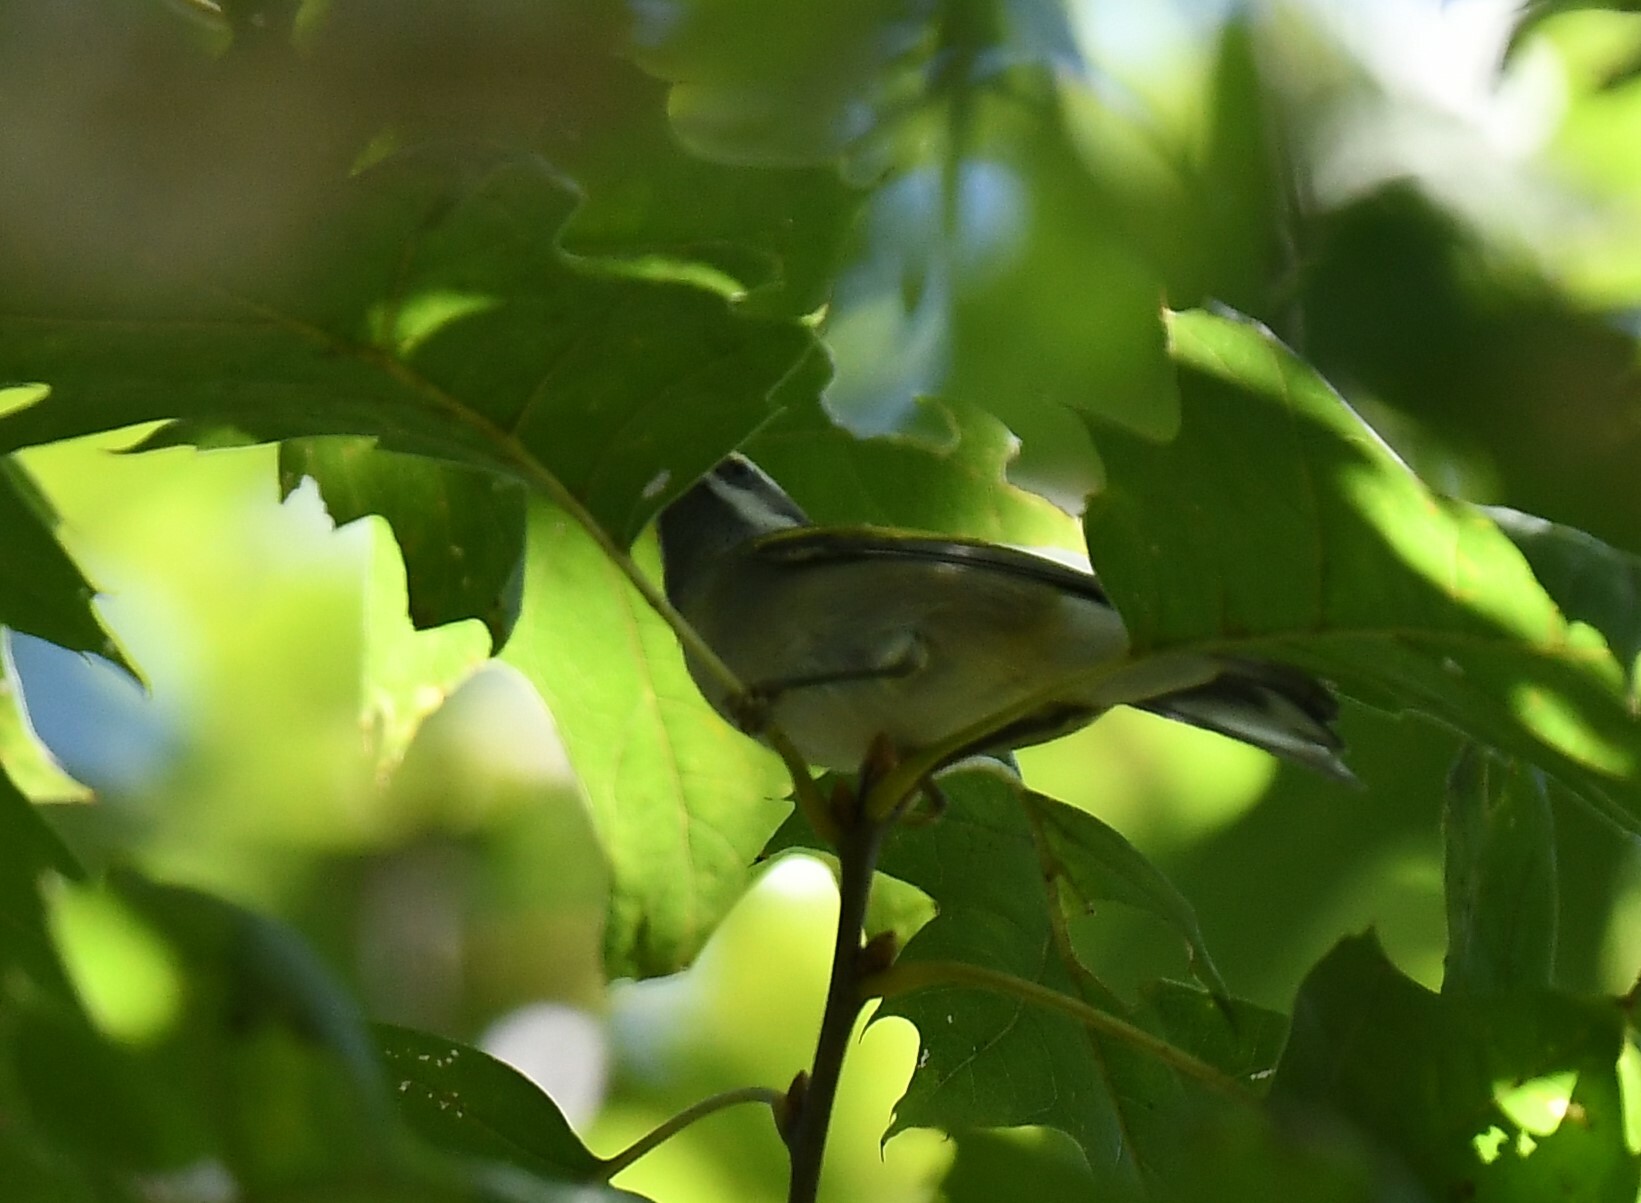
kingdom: Animalia
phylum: Chordata
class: Aves
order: Passeriformes
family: Parulidae
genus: Vermivora
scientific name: Vermivora chrysoptera
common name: Golden-winged warbler
